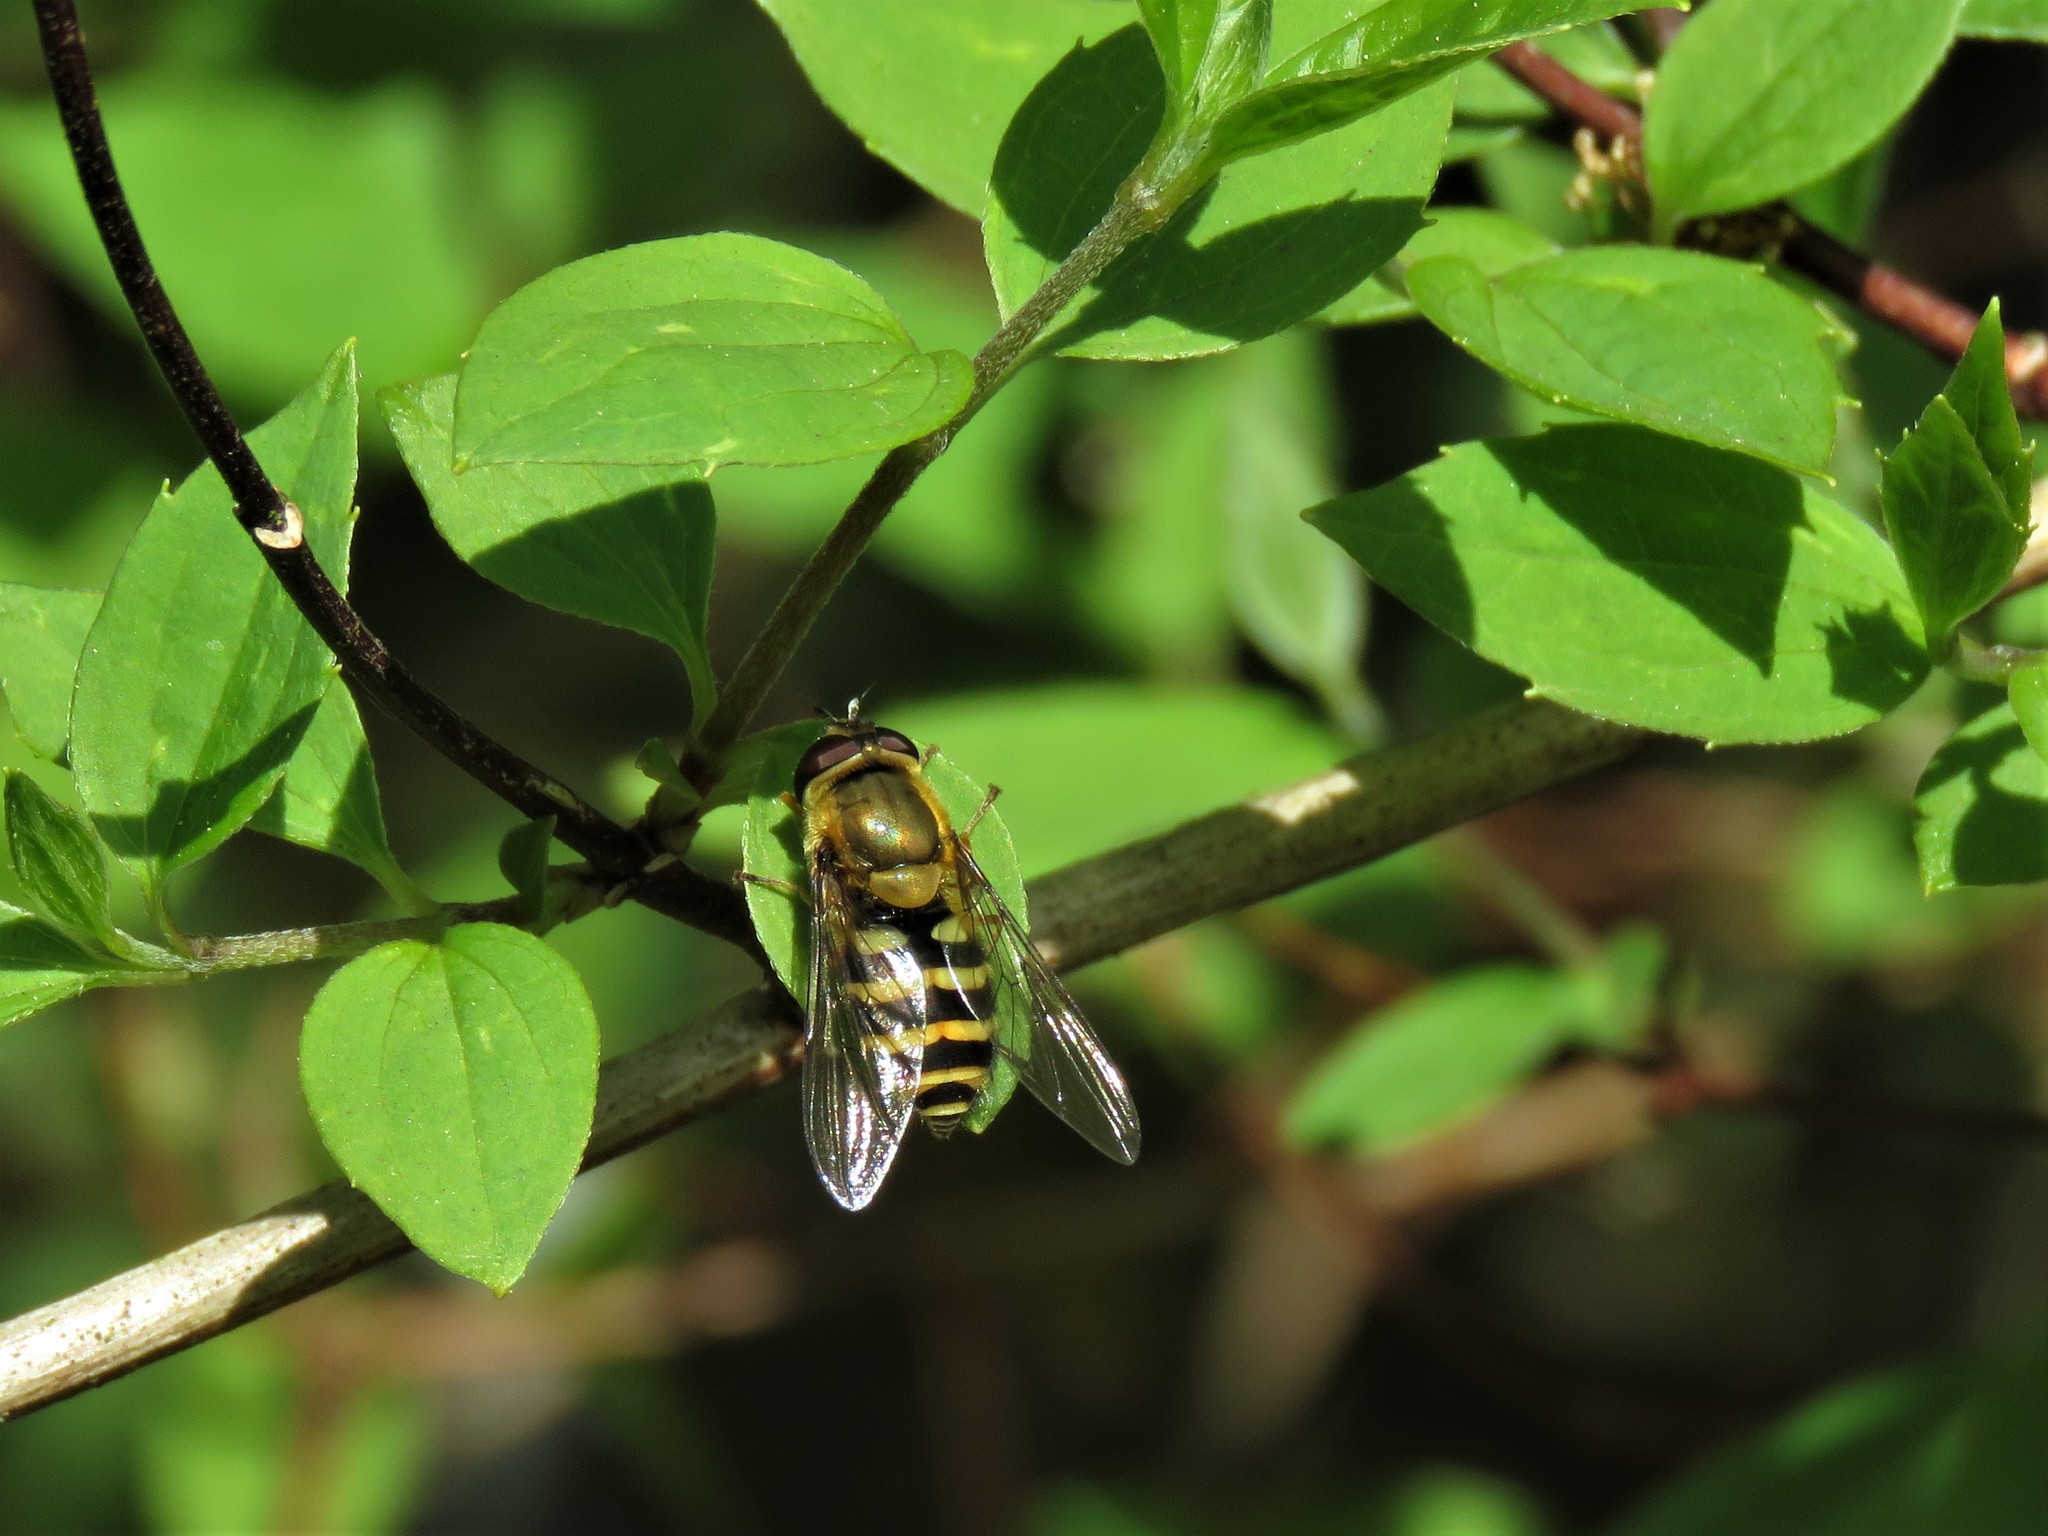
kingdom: Animalia
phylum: Arthropoda
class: Insecta
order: Diptera
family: Syrphidae
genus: Syrphus
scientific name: Syrphus
